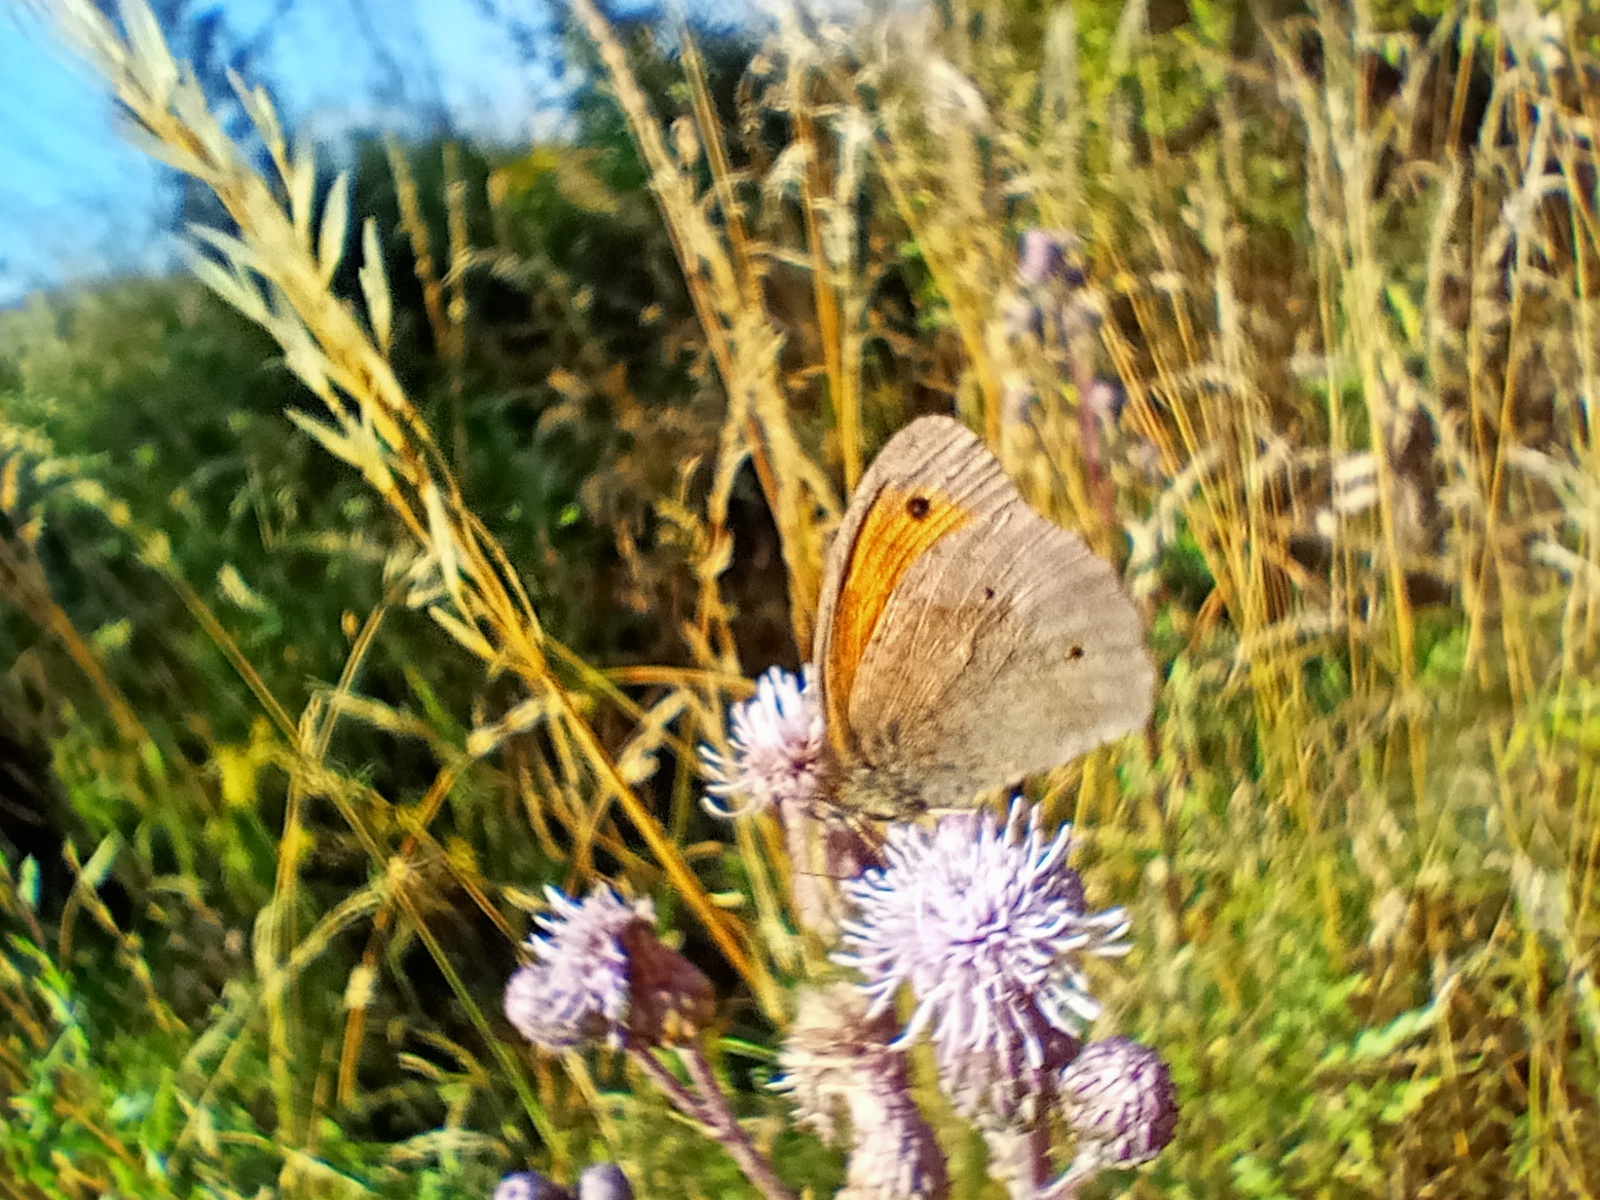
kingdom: Animalia
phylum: Arthropoda
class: Insecta
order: Lepidoptera
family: Nymphalidae
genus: Maniola
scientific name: Maniola jurtina
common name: Meadow brown
